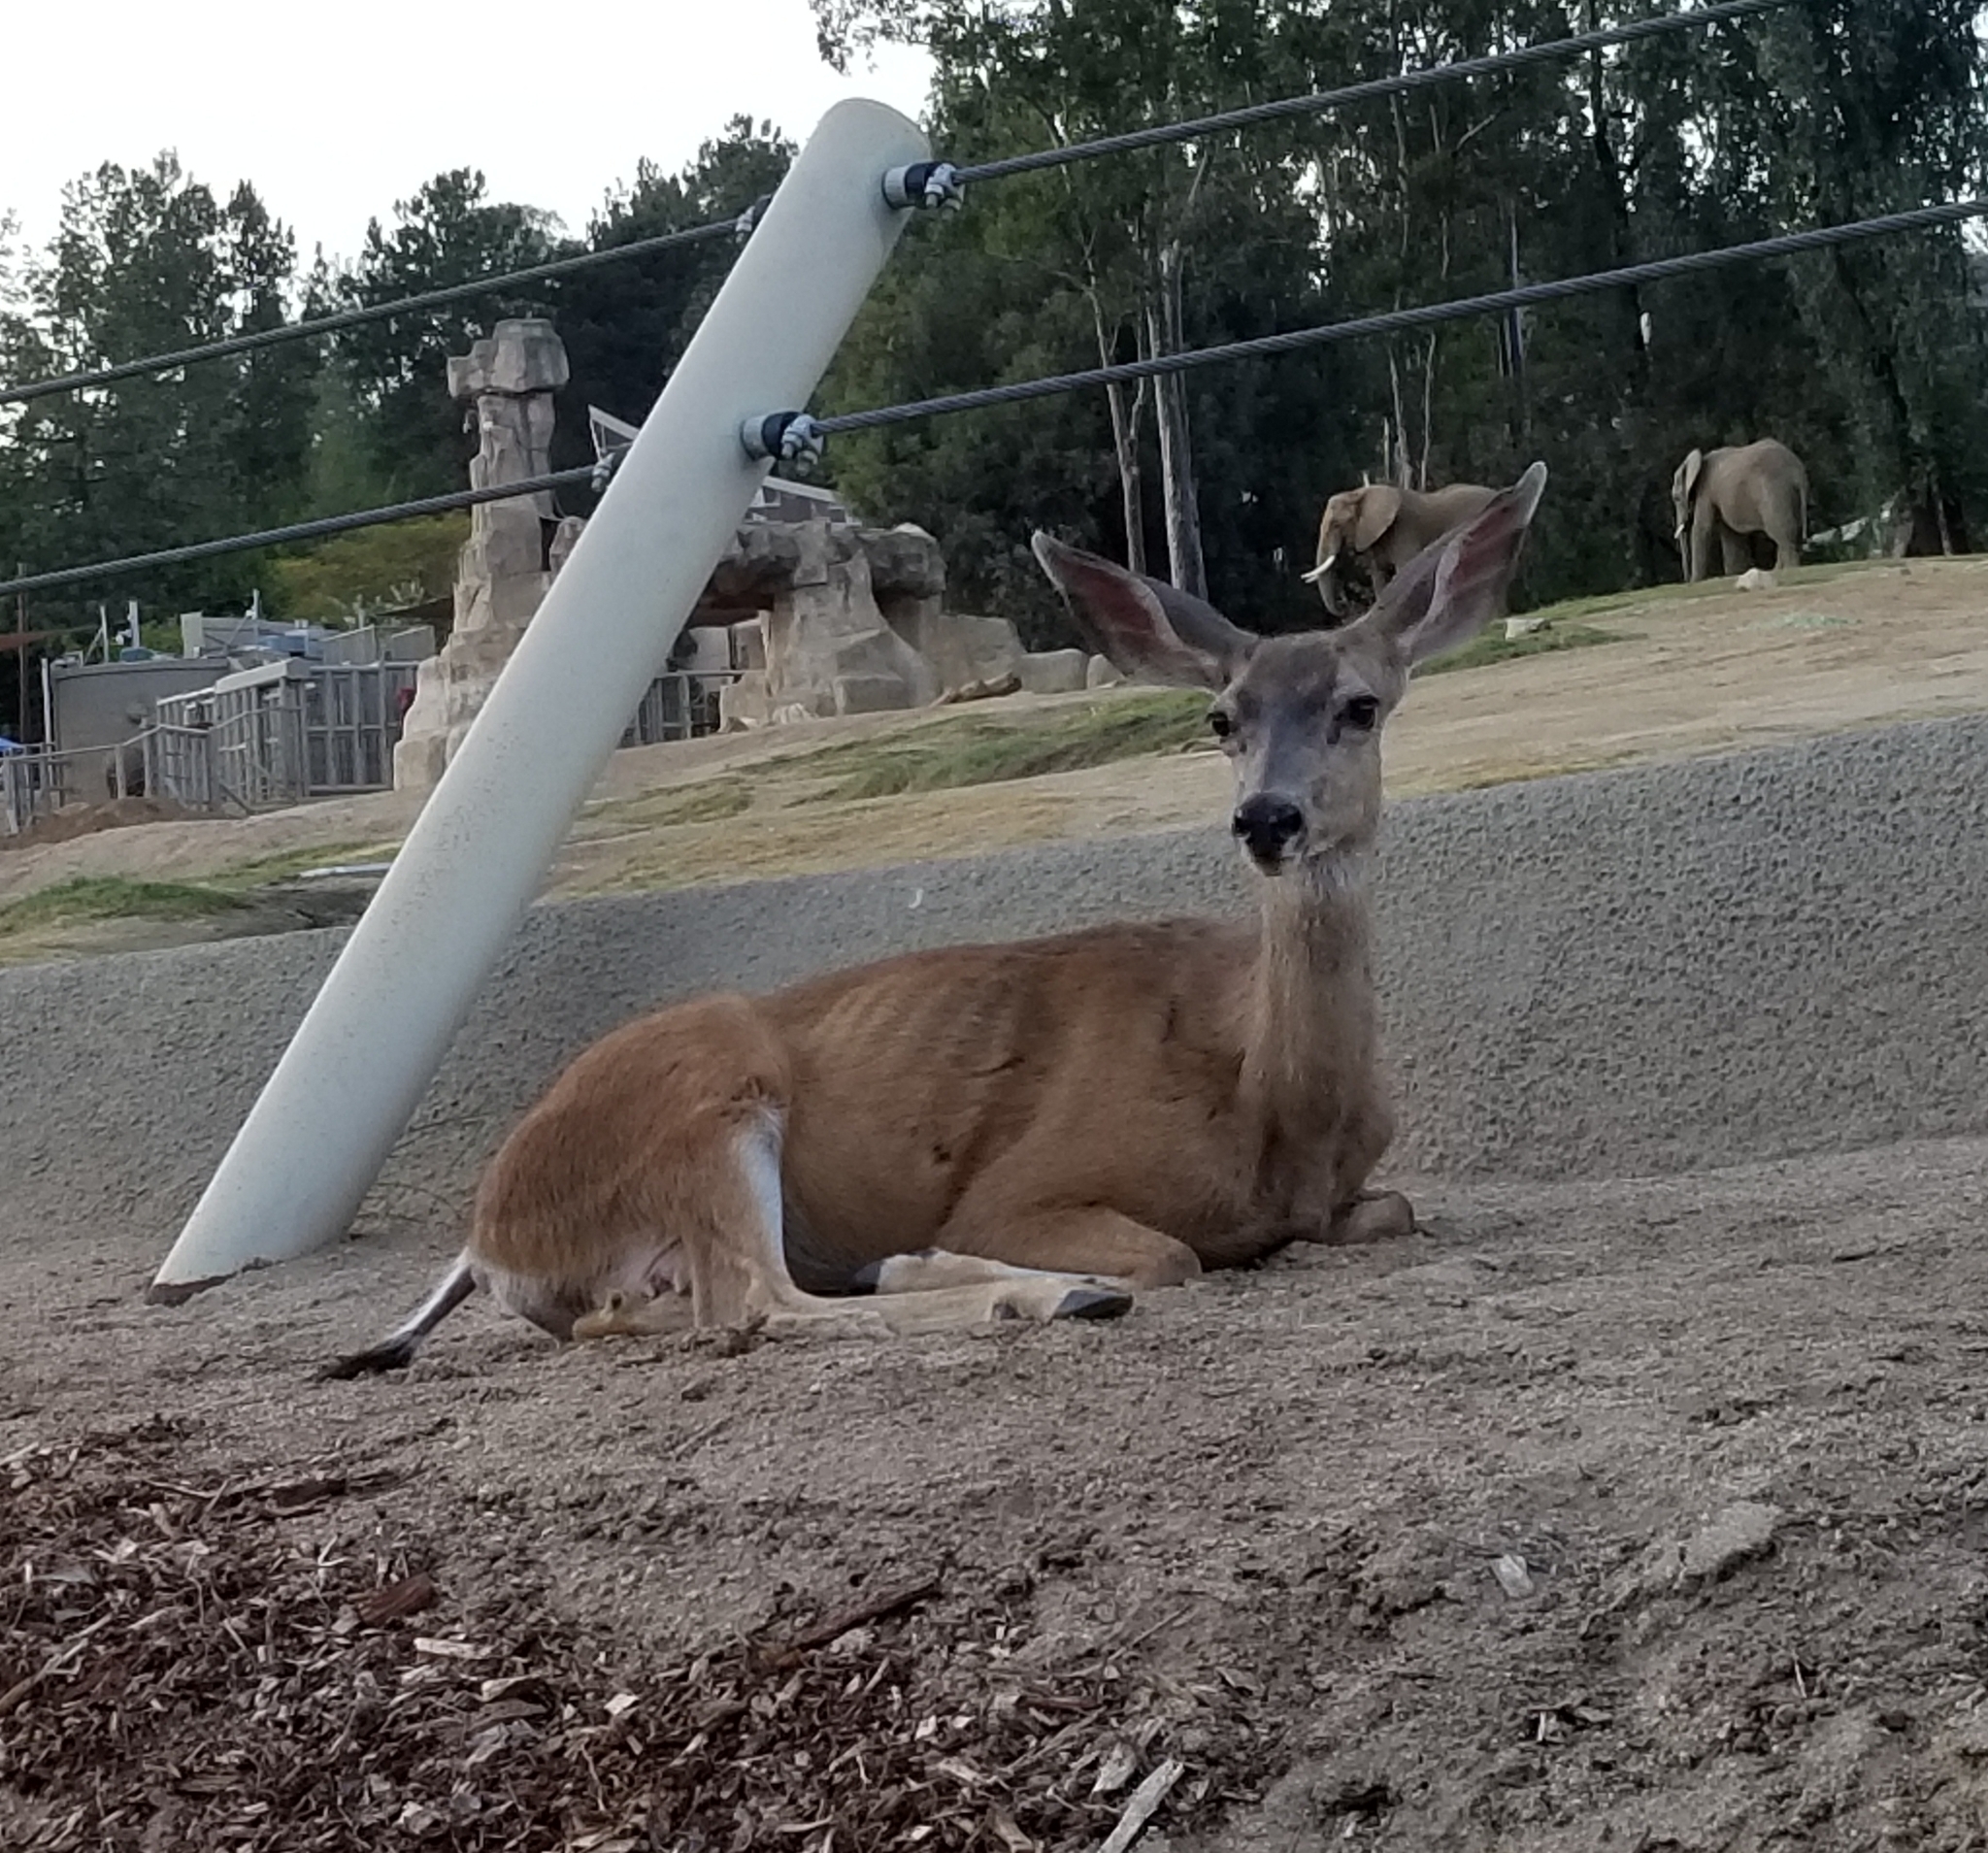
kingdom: Animalia
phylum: Chordata
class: Mammalia
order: Artiodactyla
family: Cervidae
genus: Odocoileus
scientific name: Odocoileus hemionus
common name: Mule deer
